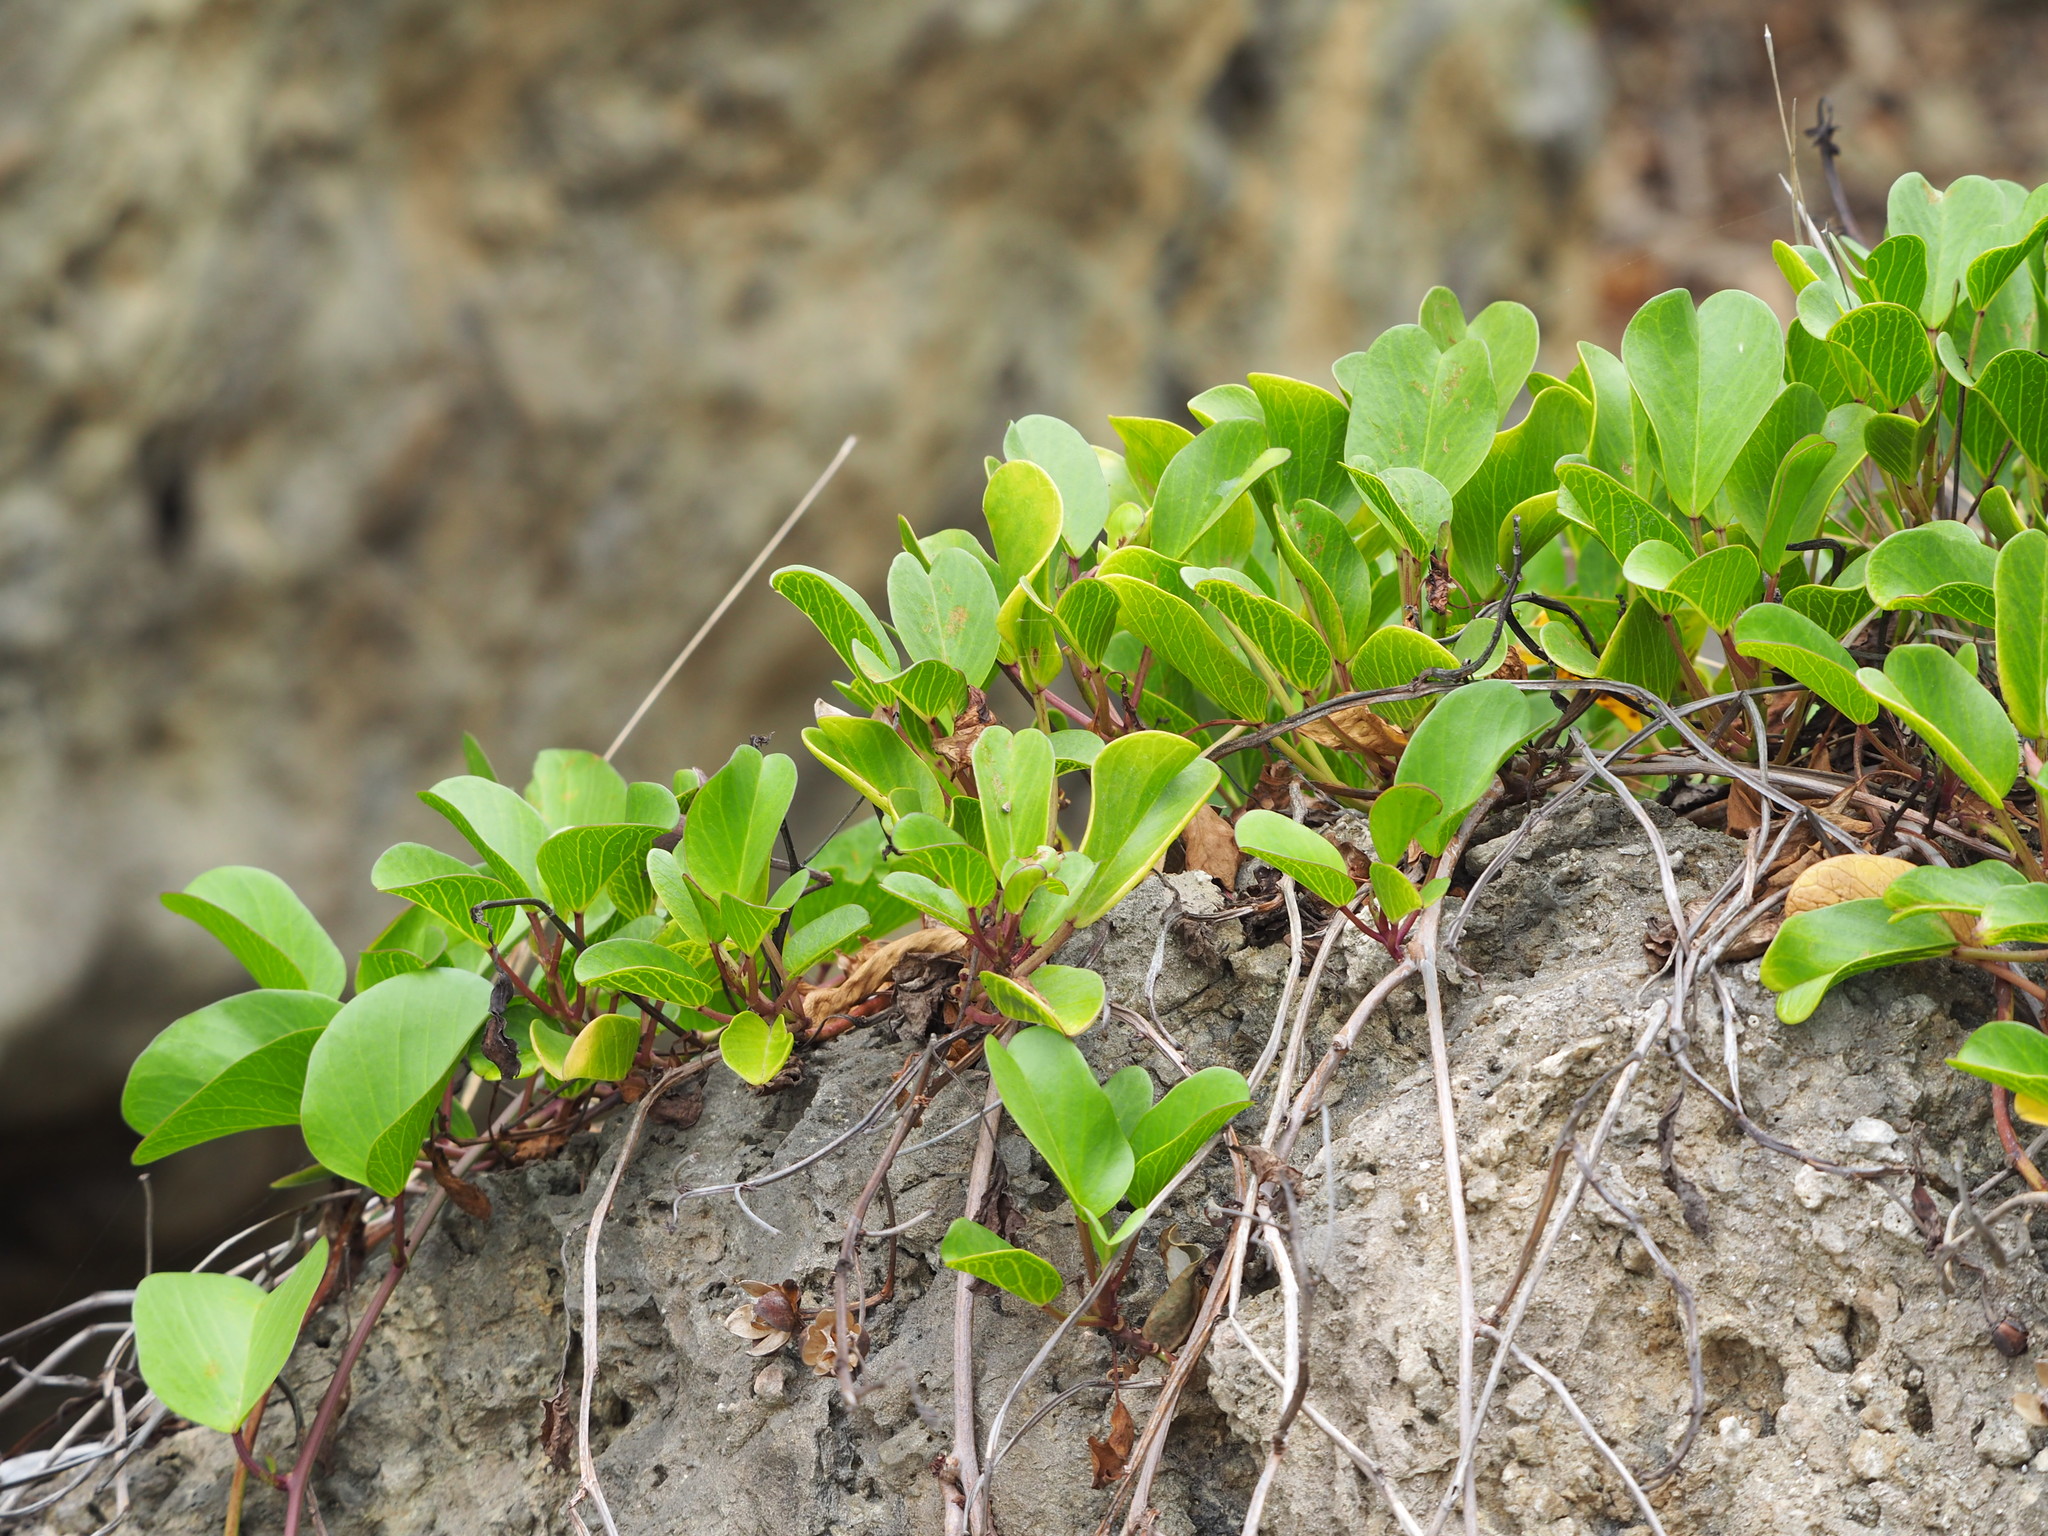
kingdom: Plantae
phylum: Tracheophyta
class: Magnoliopsida
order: Solanales
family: Convolvulaceae
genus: Ipomoea
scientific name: Ipomoea pes-caprae
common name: Beach morning glory
